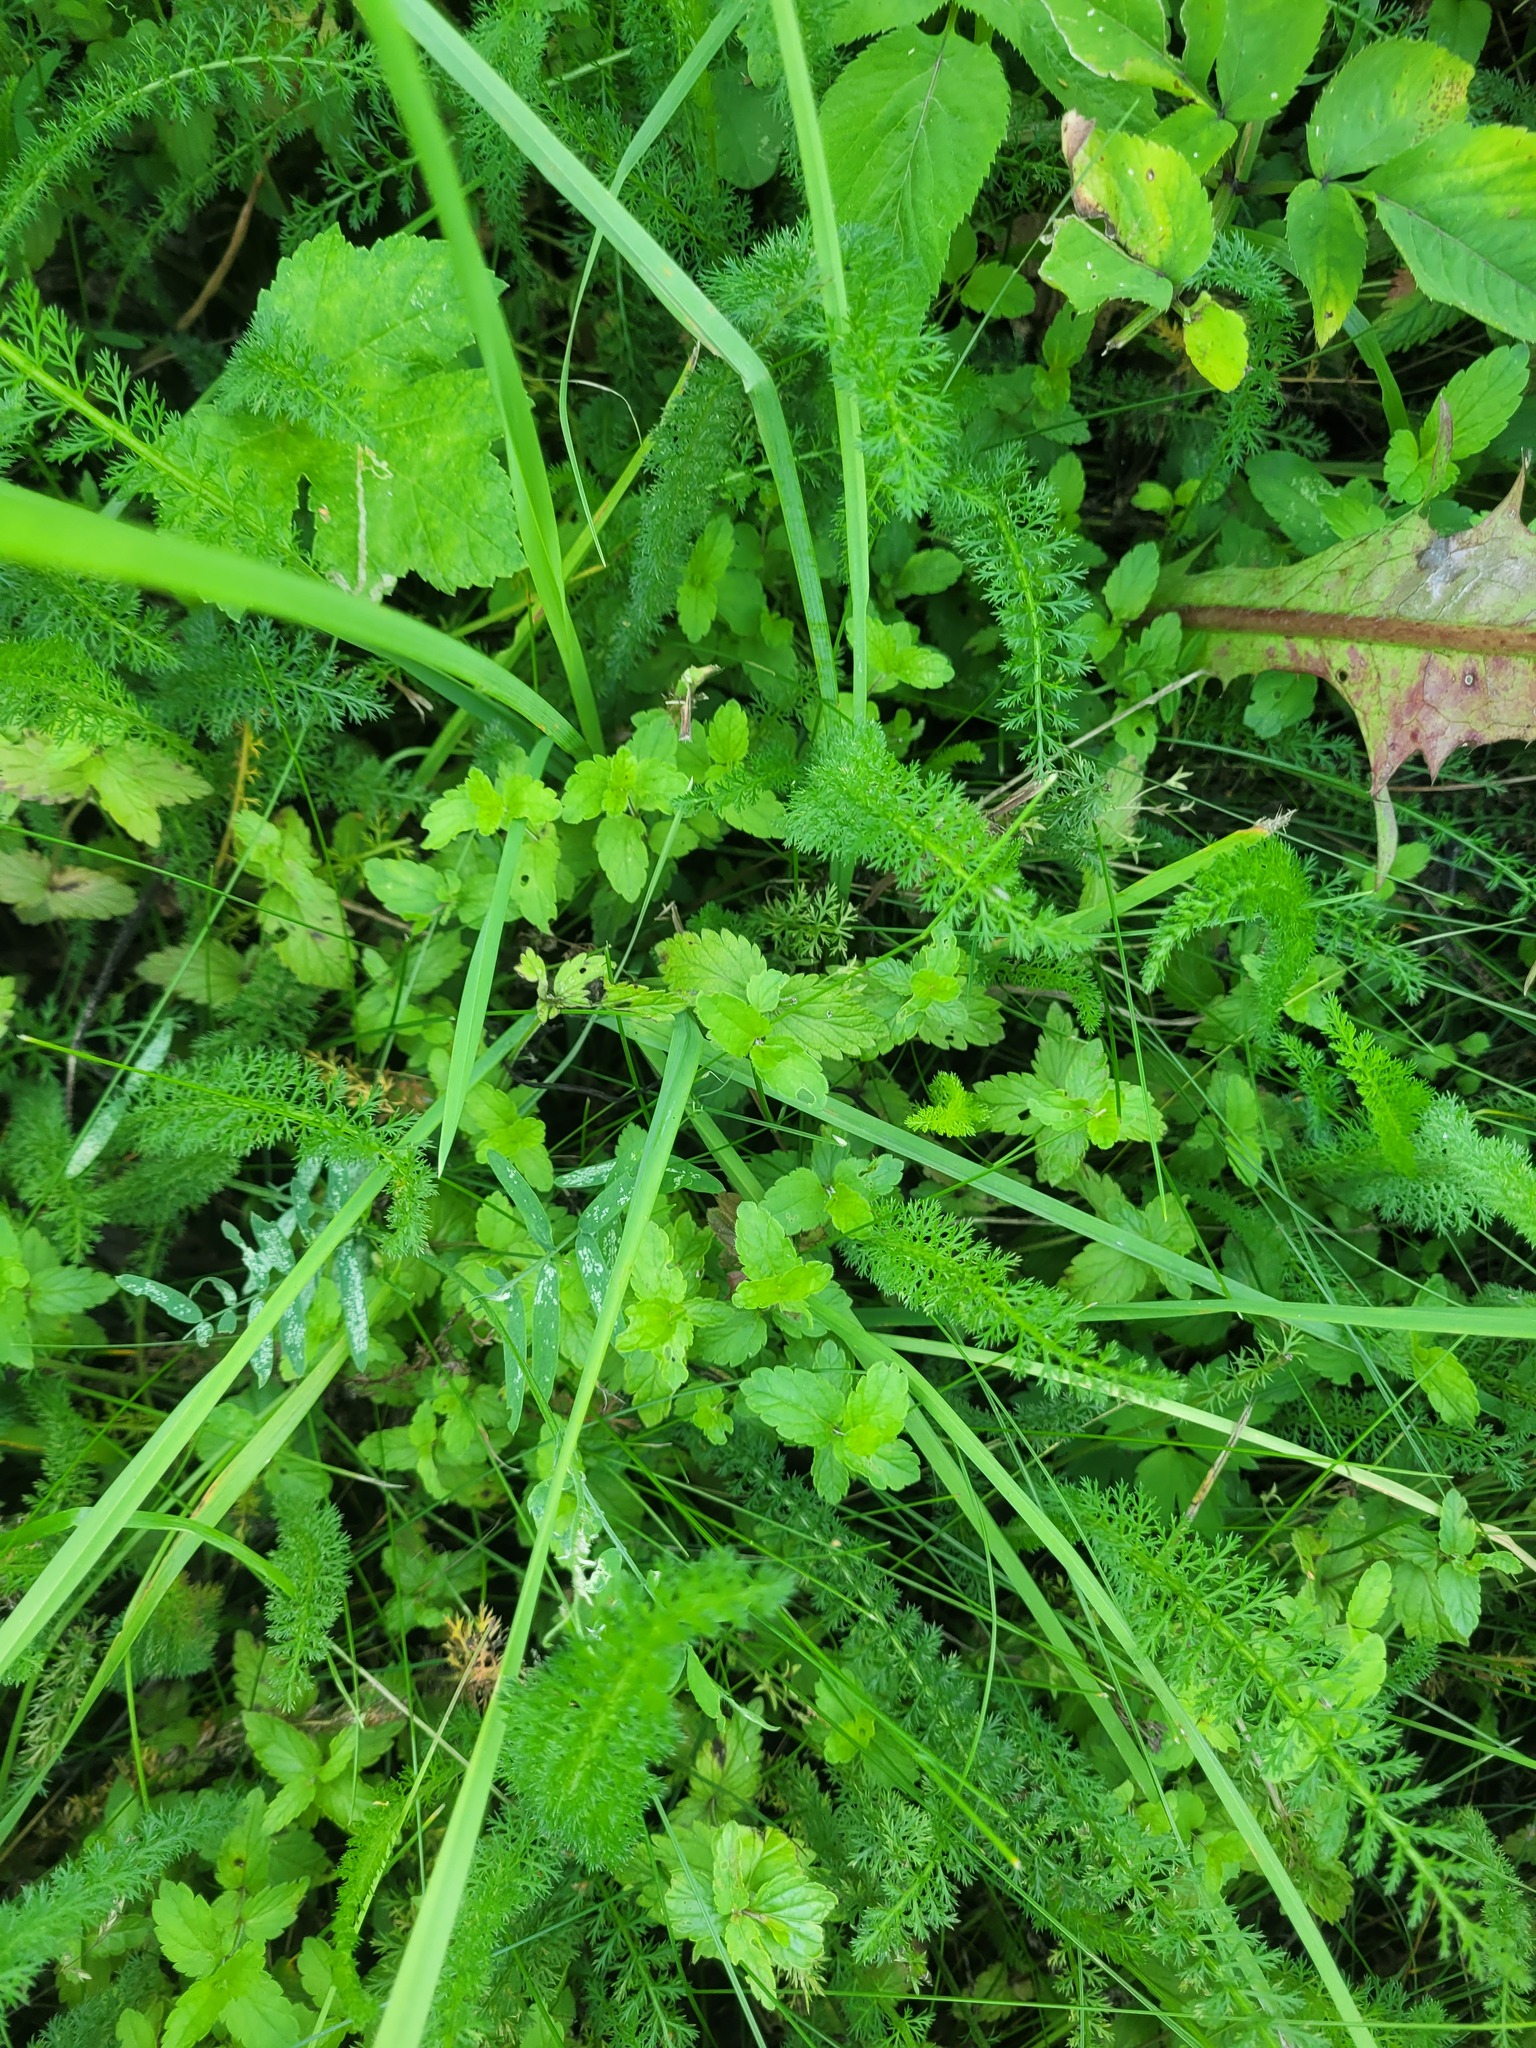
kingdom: Plantae
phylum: Tracheophyta
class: Magnoliopsida
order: Lamiales
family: Plantaginaceae
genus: Veronica
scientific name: Veronica chamaedrys
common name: Germander speedwell
